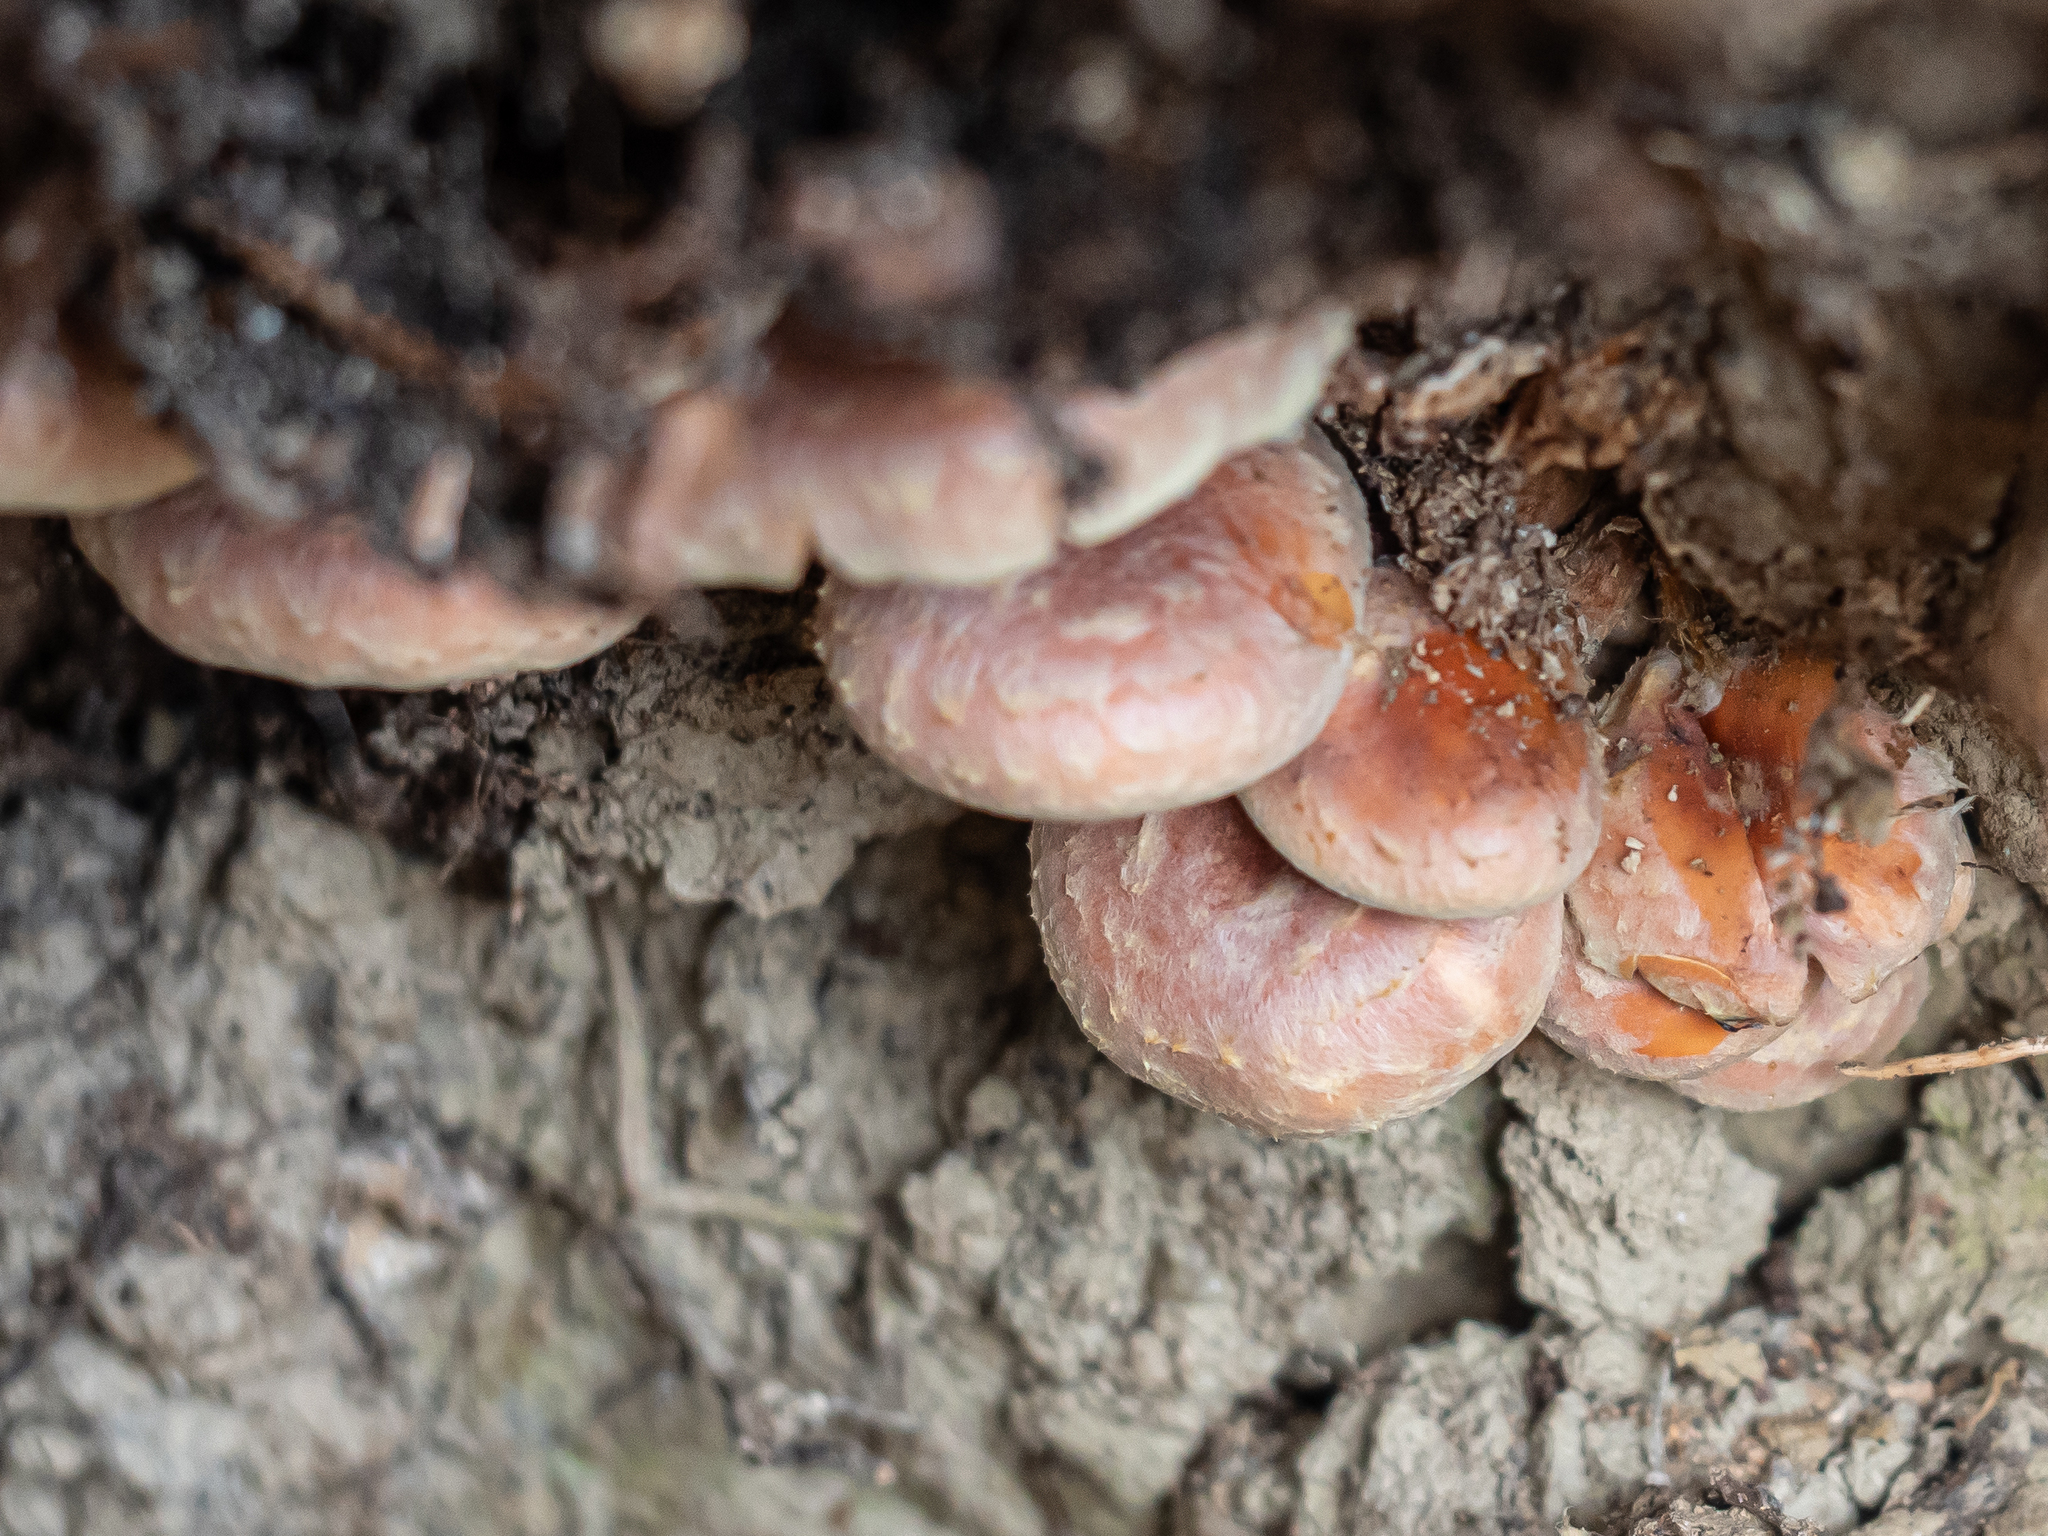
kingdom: Fungi
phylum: Basidiomycota
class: Agaricomycetes
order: Agaricales
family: Strophariaceae
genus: Hypholoma
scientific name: Hypholoma lateritium
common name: Brick caps
